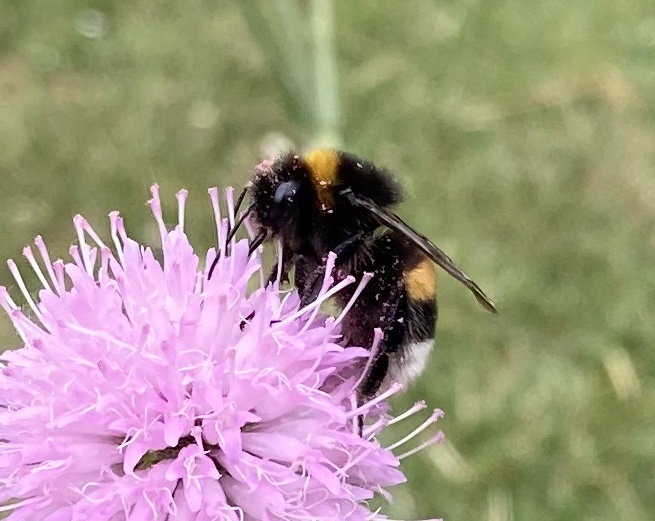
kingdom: Animalia
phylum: Arthropoda
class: Insecta
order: Hymenoptera
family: Apidae
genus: Bombus
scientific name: Bombus terrestris
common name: Buff-tailed bumblebee
